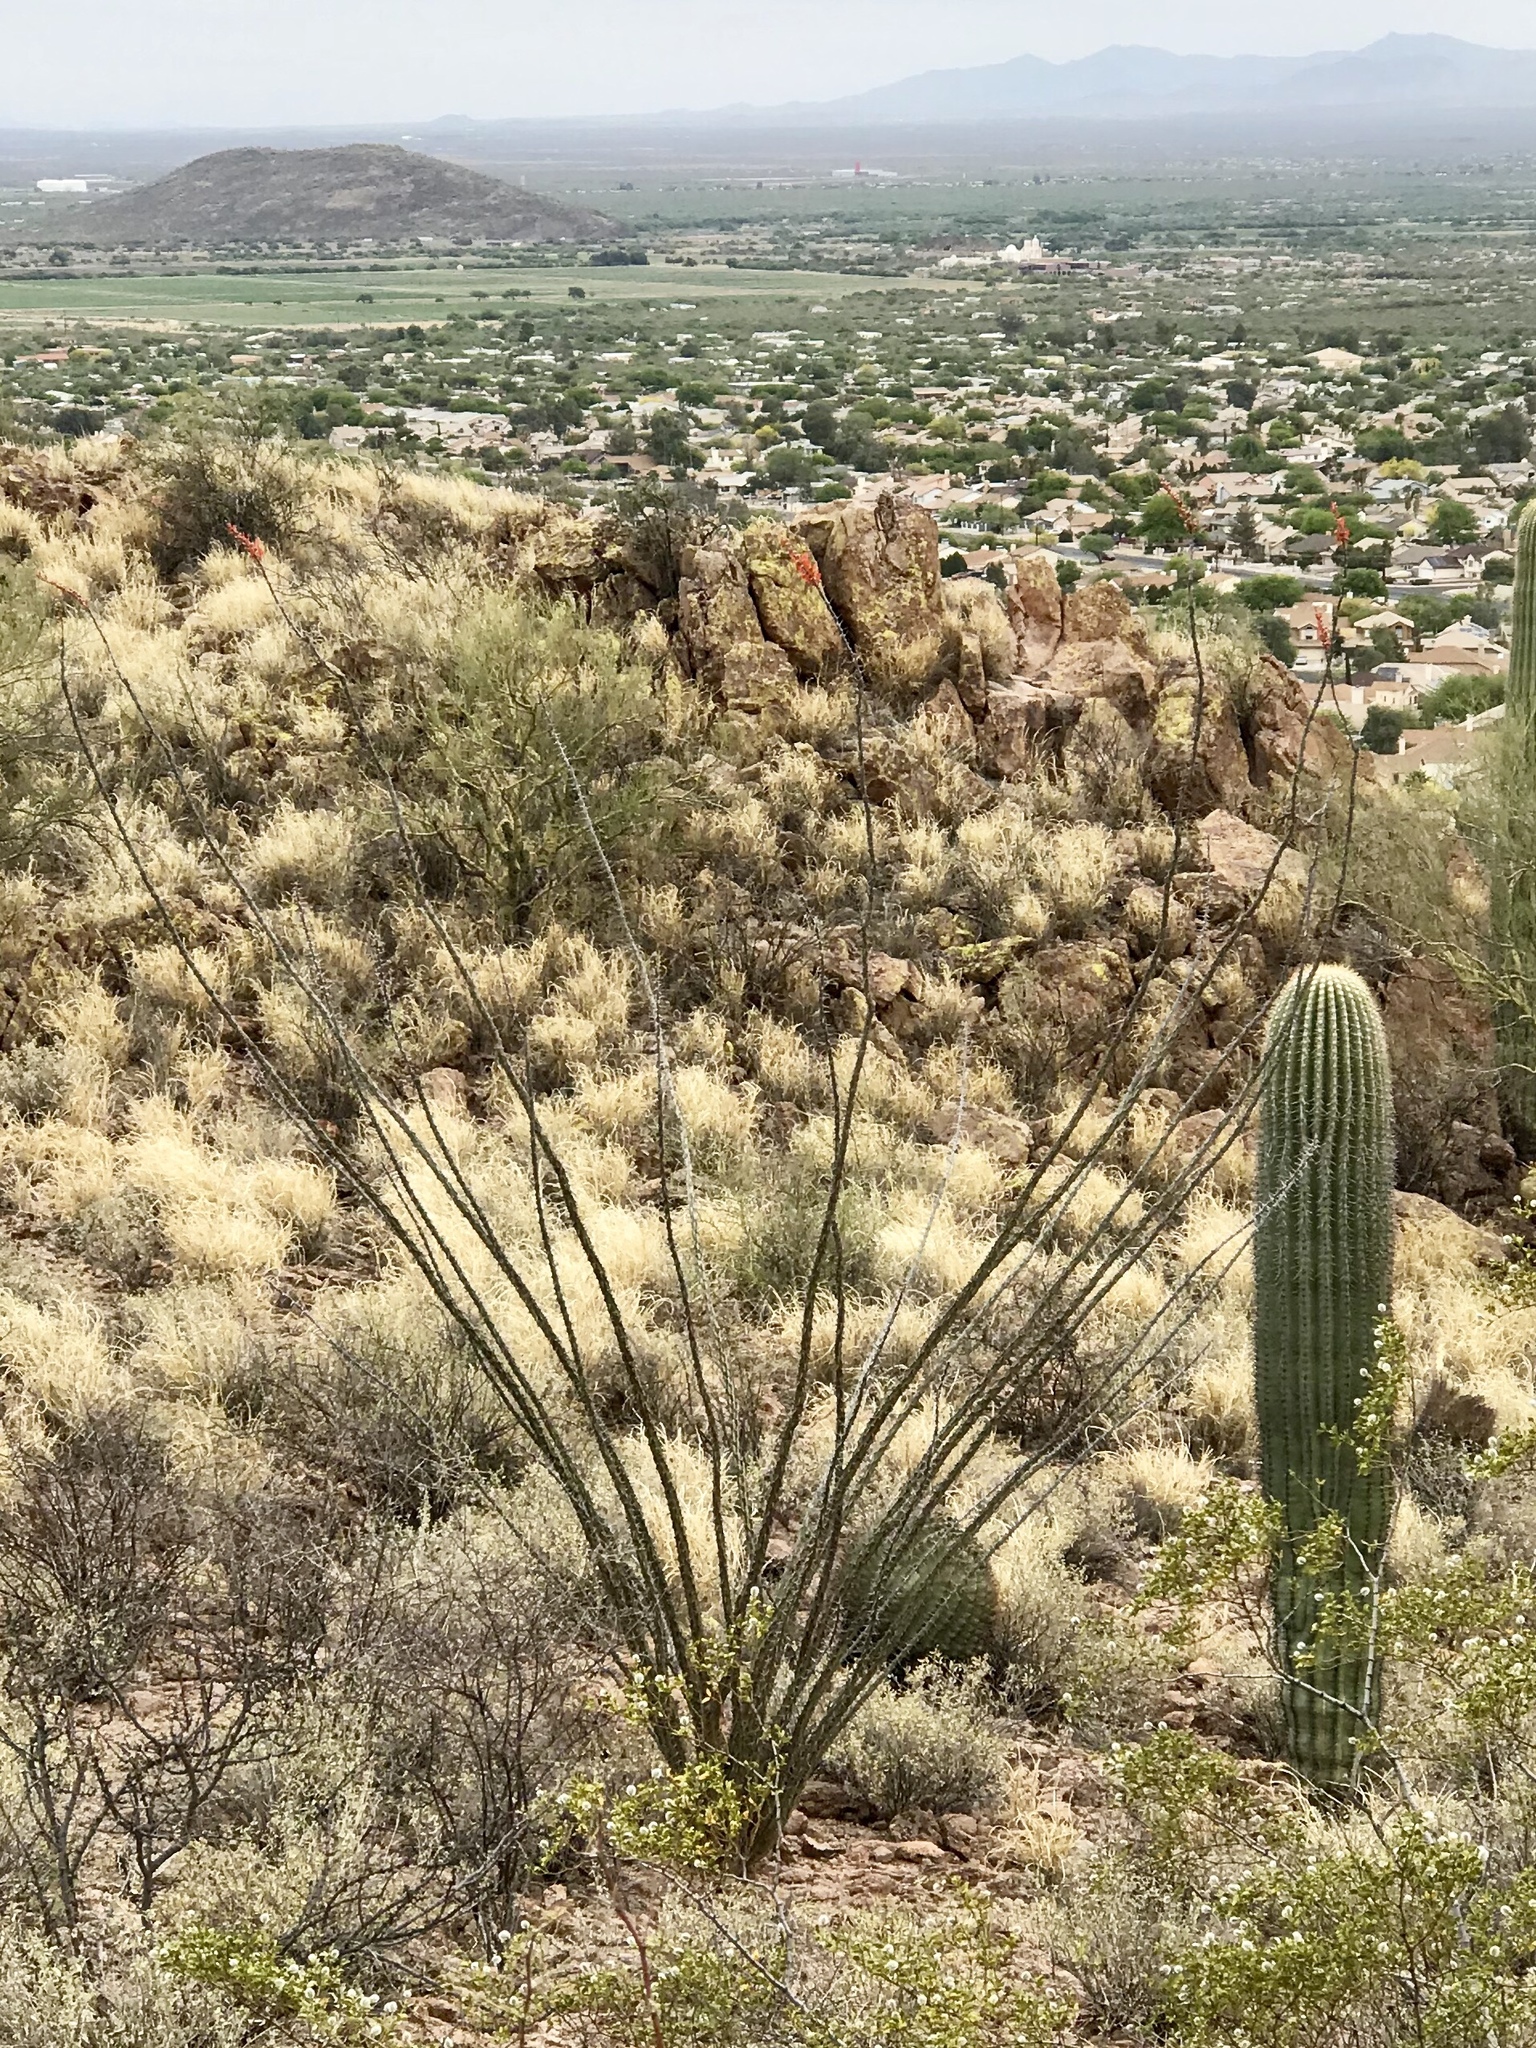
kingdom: Plantae
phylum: Tracheophyta
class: Magnoliopsida
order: Ericales
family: Fouquieriaceae
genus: Fouquieria
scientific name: Fouquieria splendens
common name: Vine-cactus
